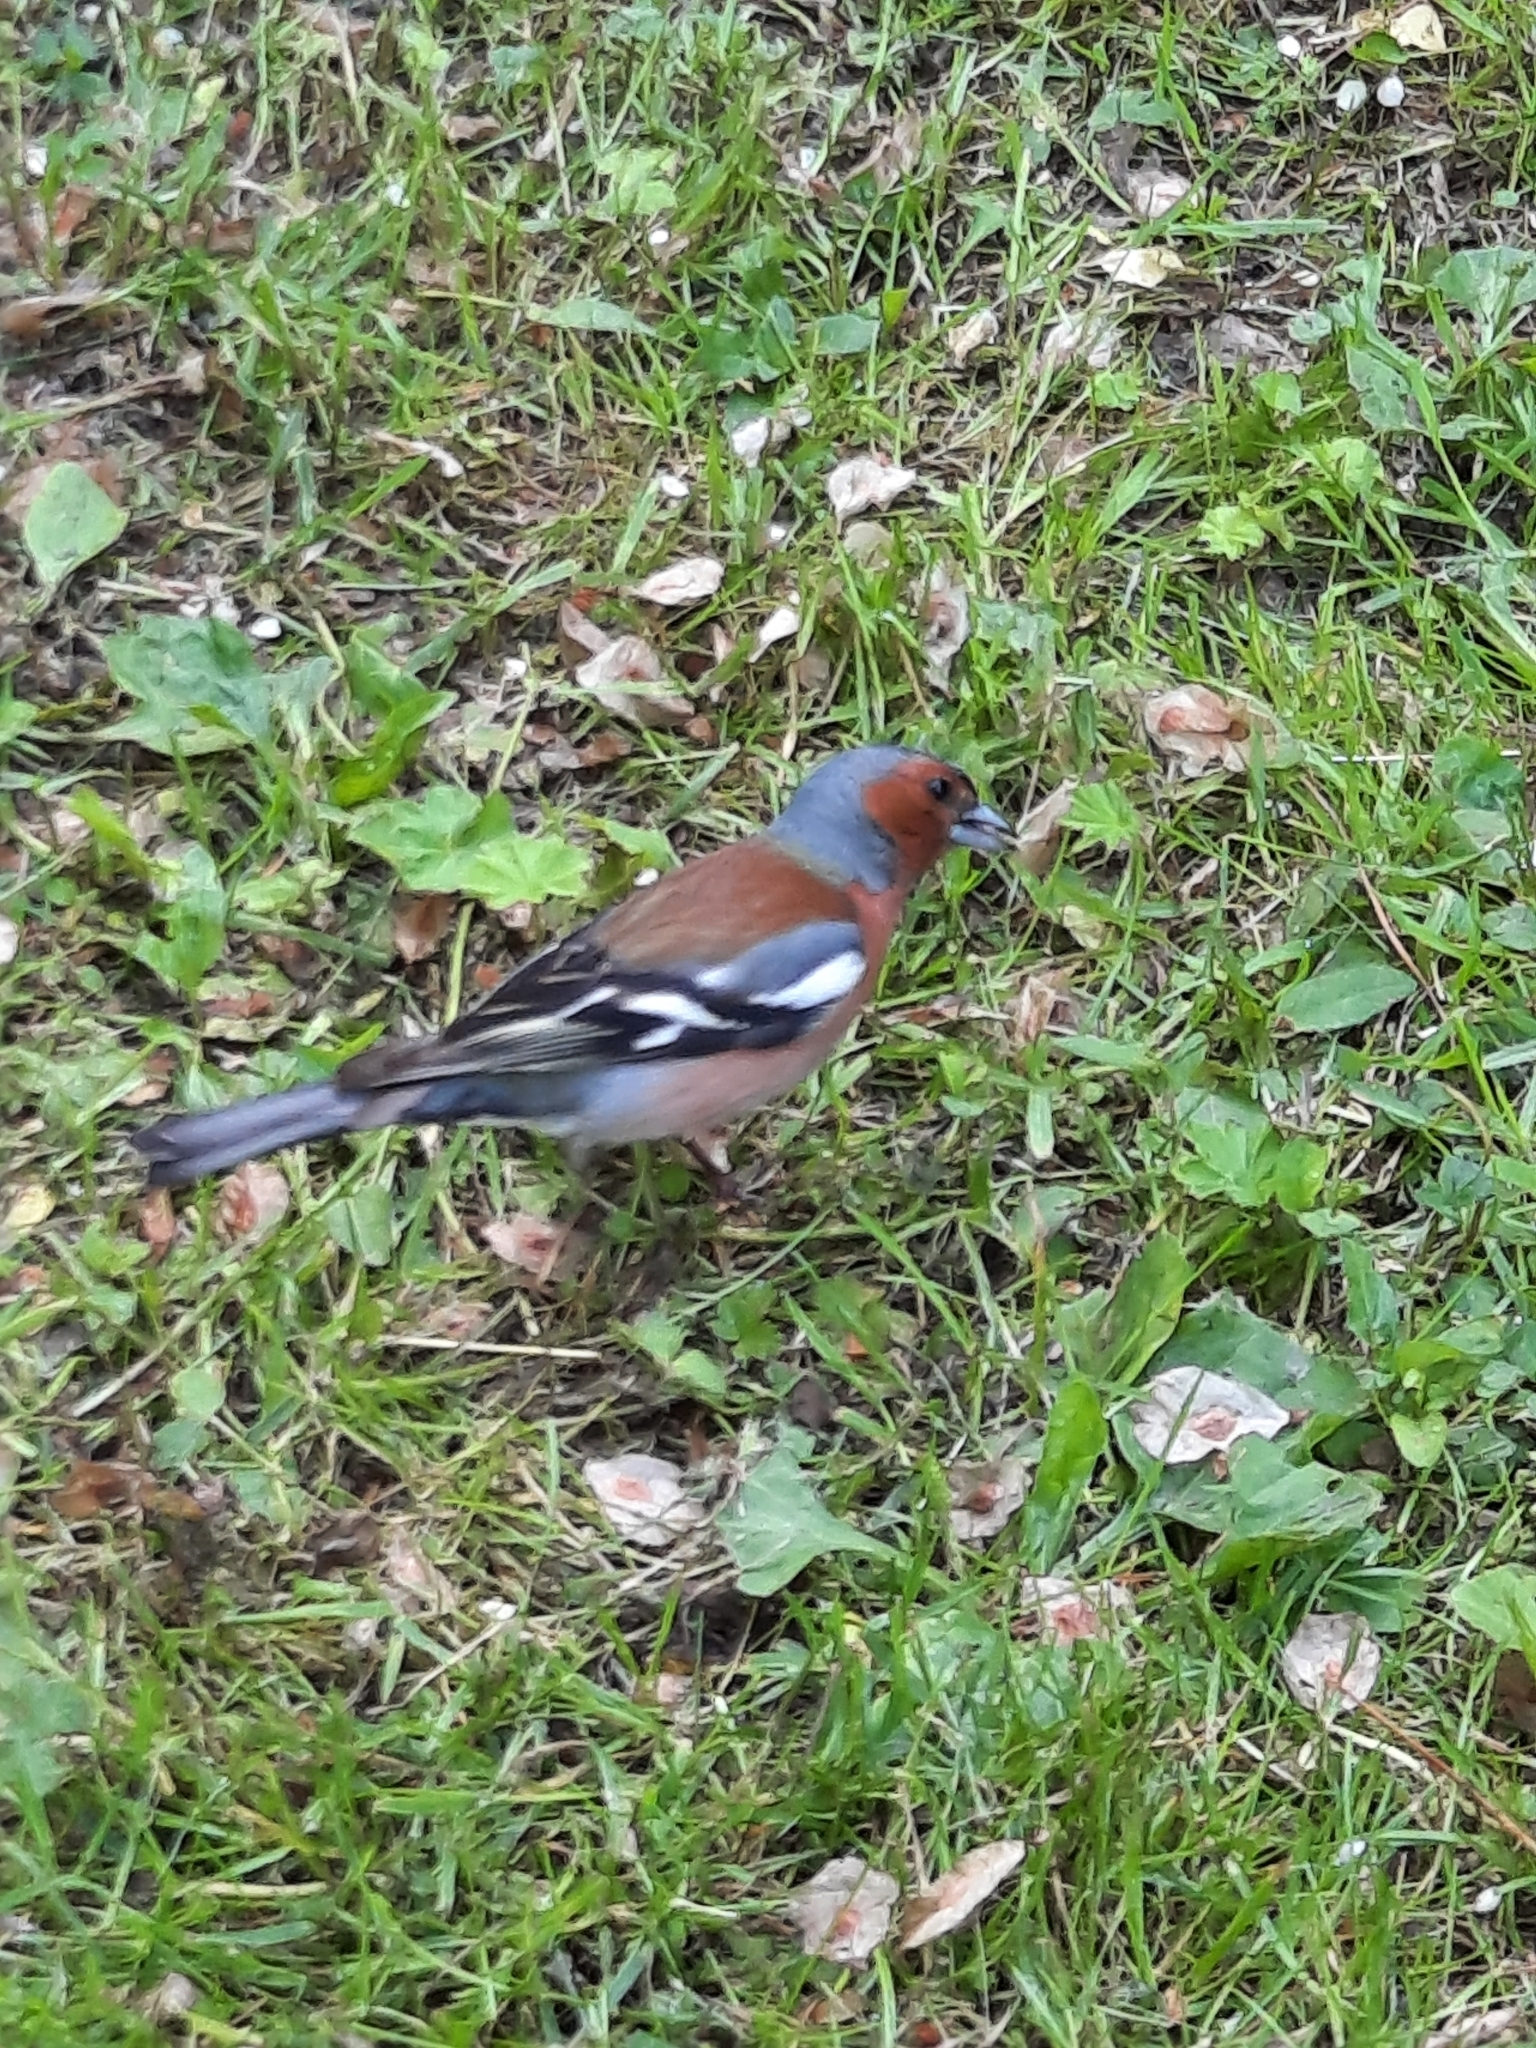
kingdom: Animalia
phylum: Chordata
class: Aves
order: Passeriformes
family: Fringillidae
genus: Fringilla
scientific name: Fringilla coelebs
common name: Common chaffinch
